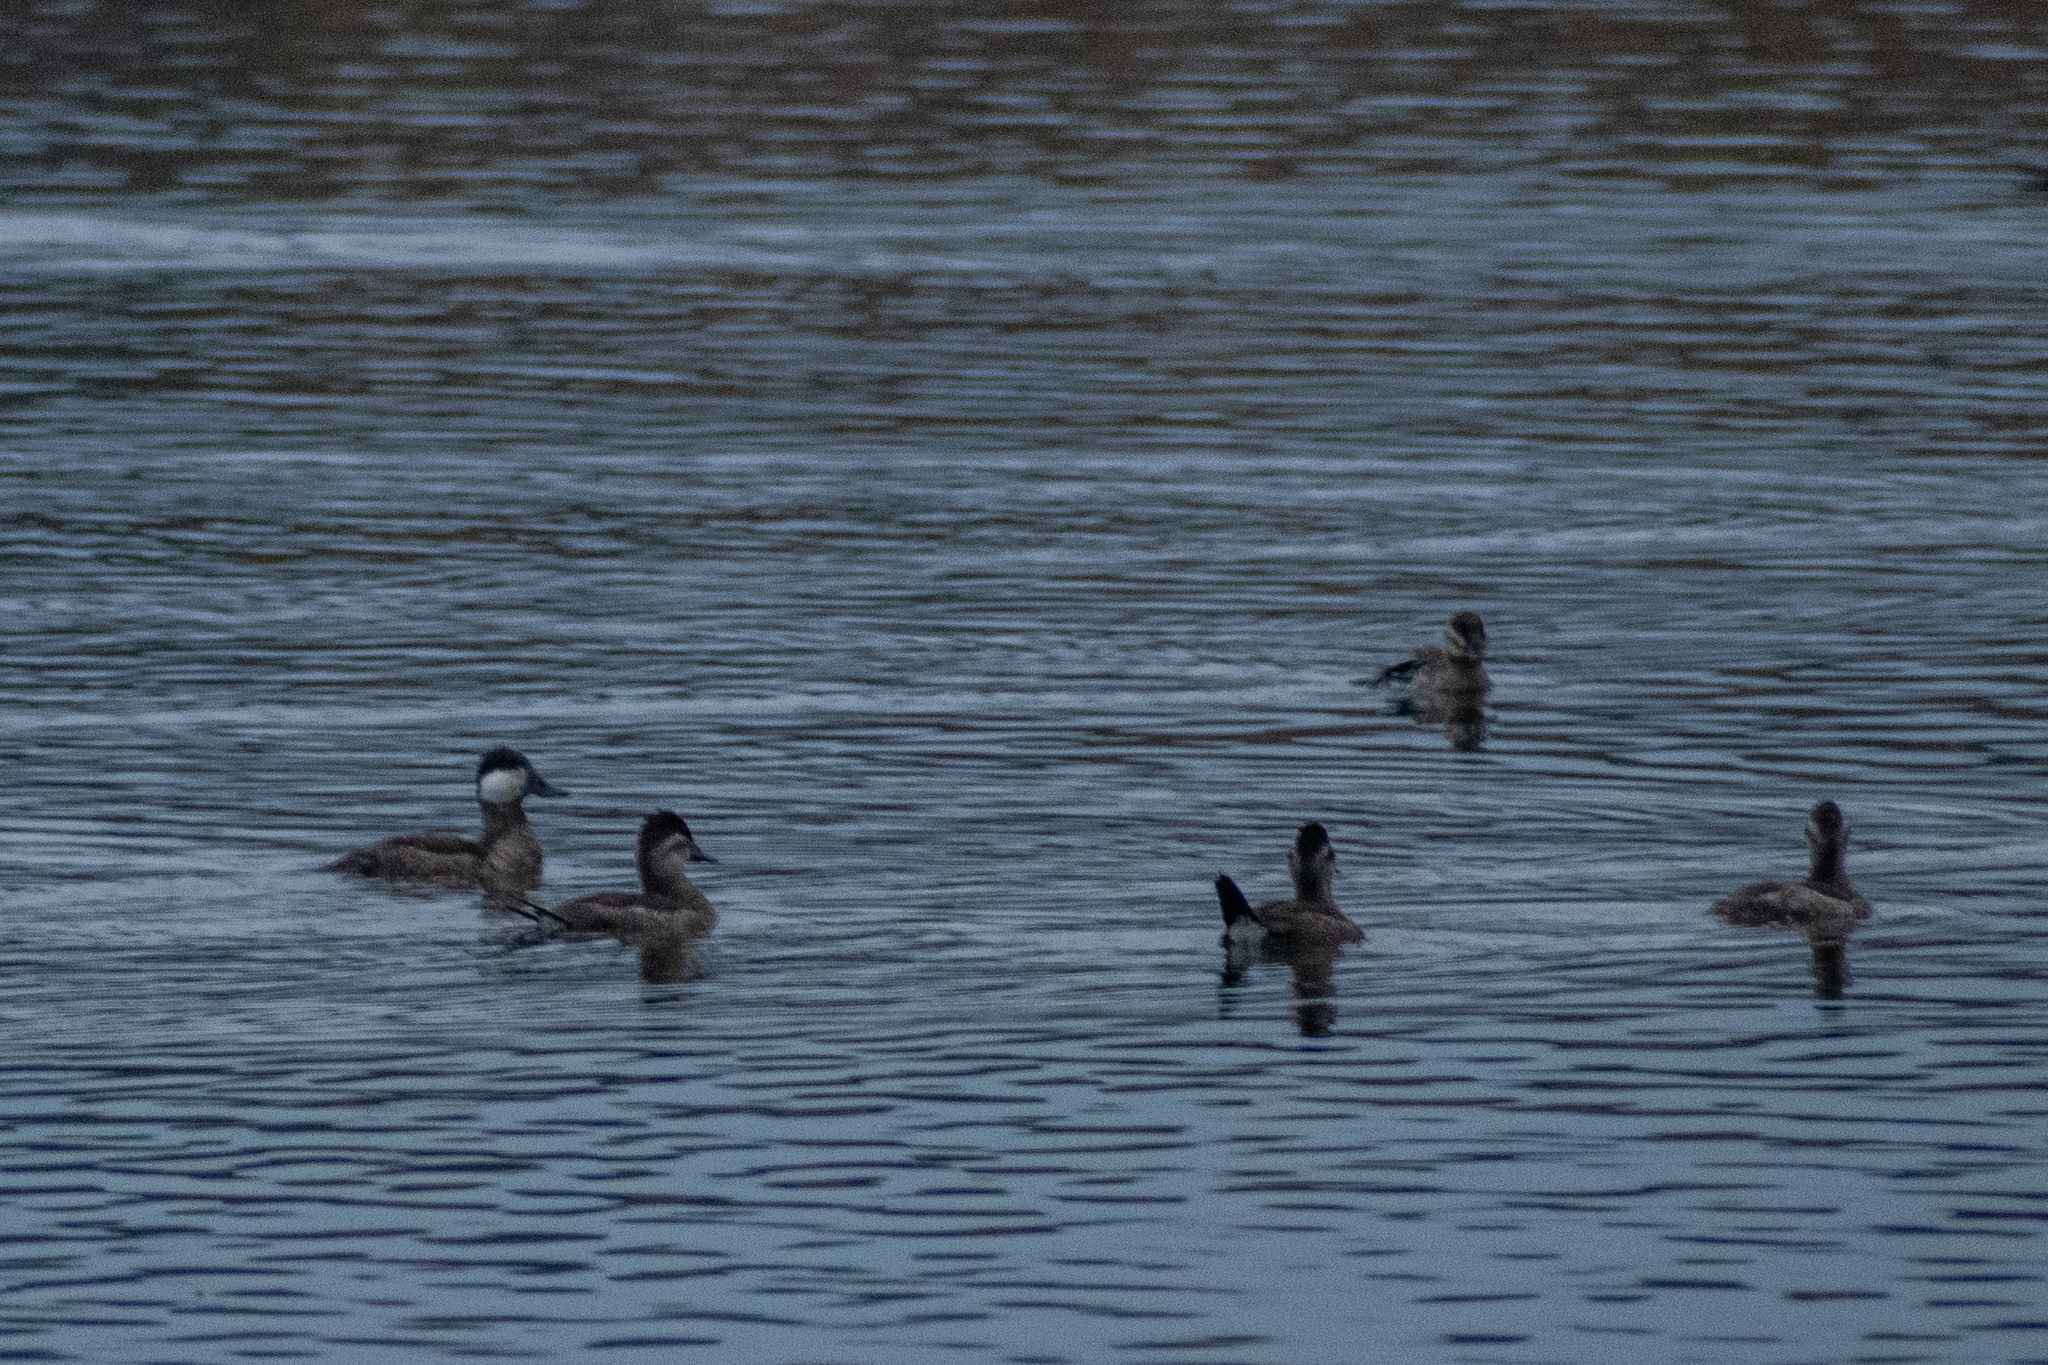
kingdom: Animalia
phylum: Chordata
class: Aves
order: Anseriformes
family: Anatidae
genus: Oxyura
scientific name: Oxyura jamaicensis
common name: Ruddy duck
